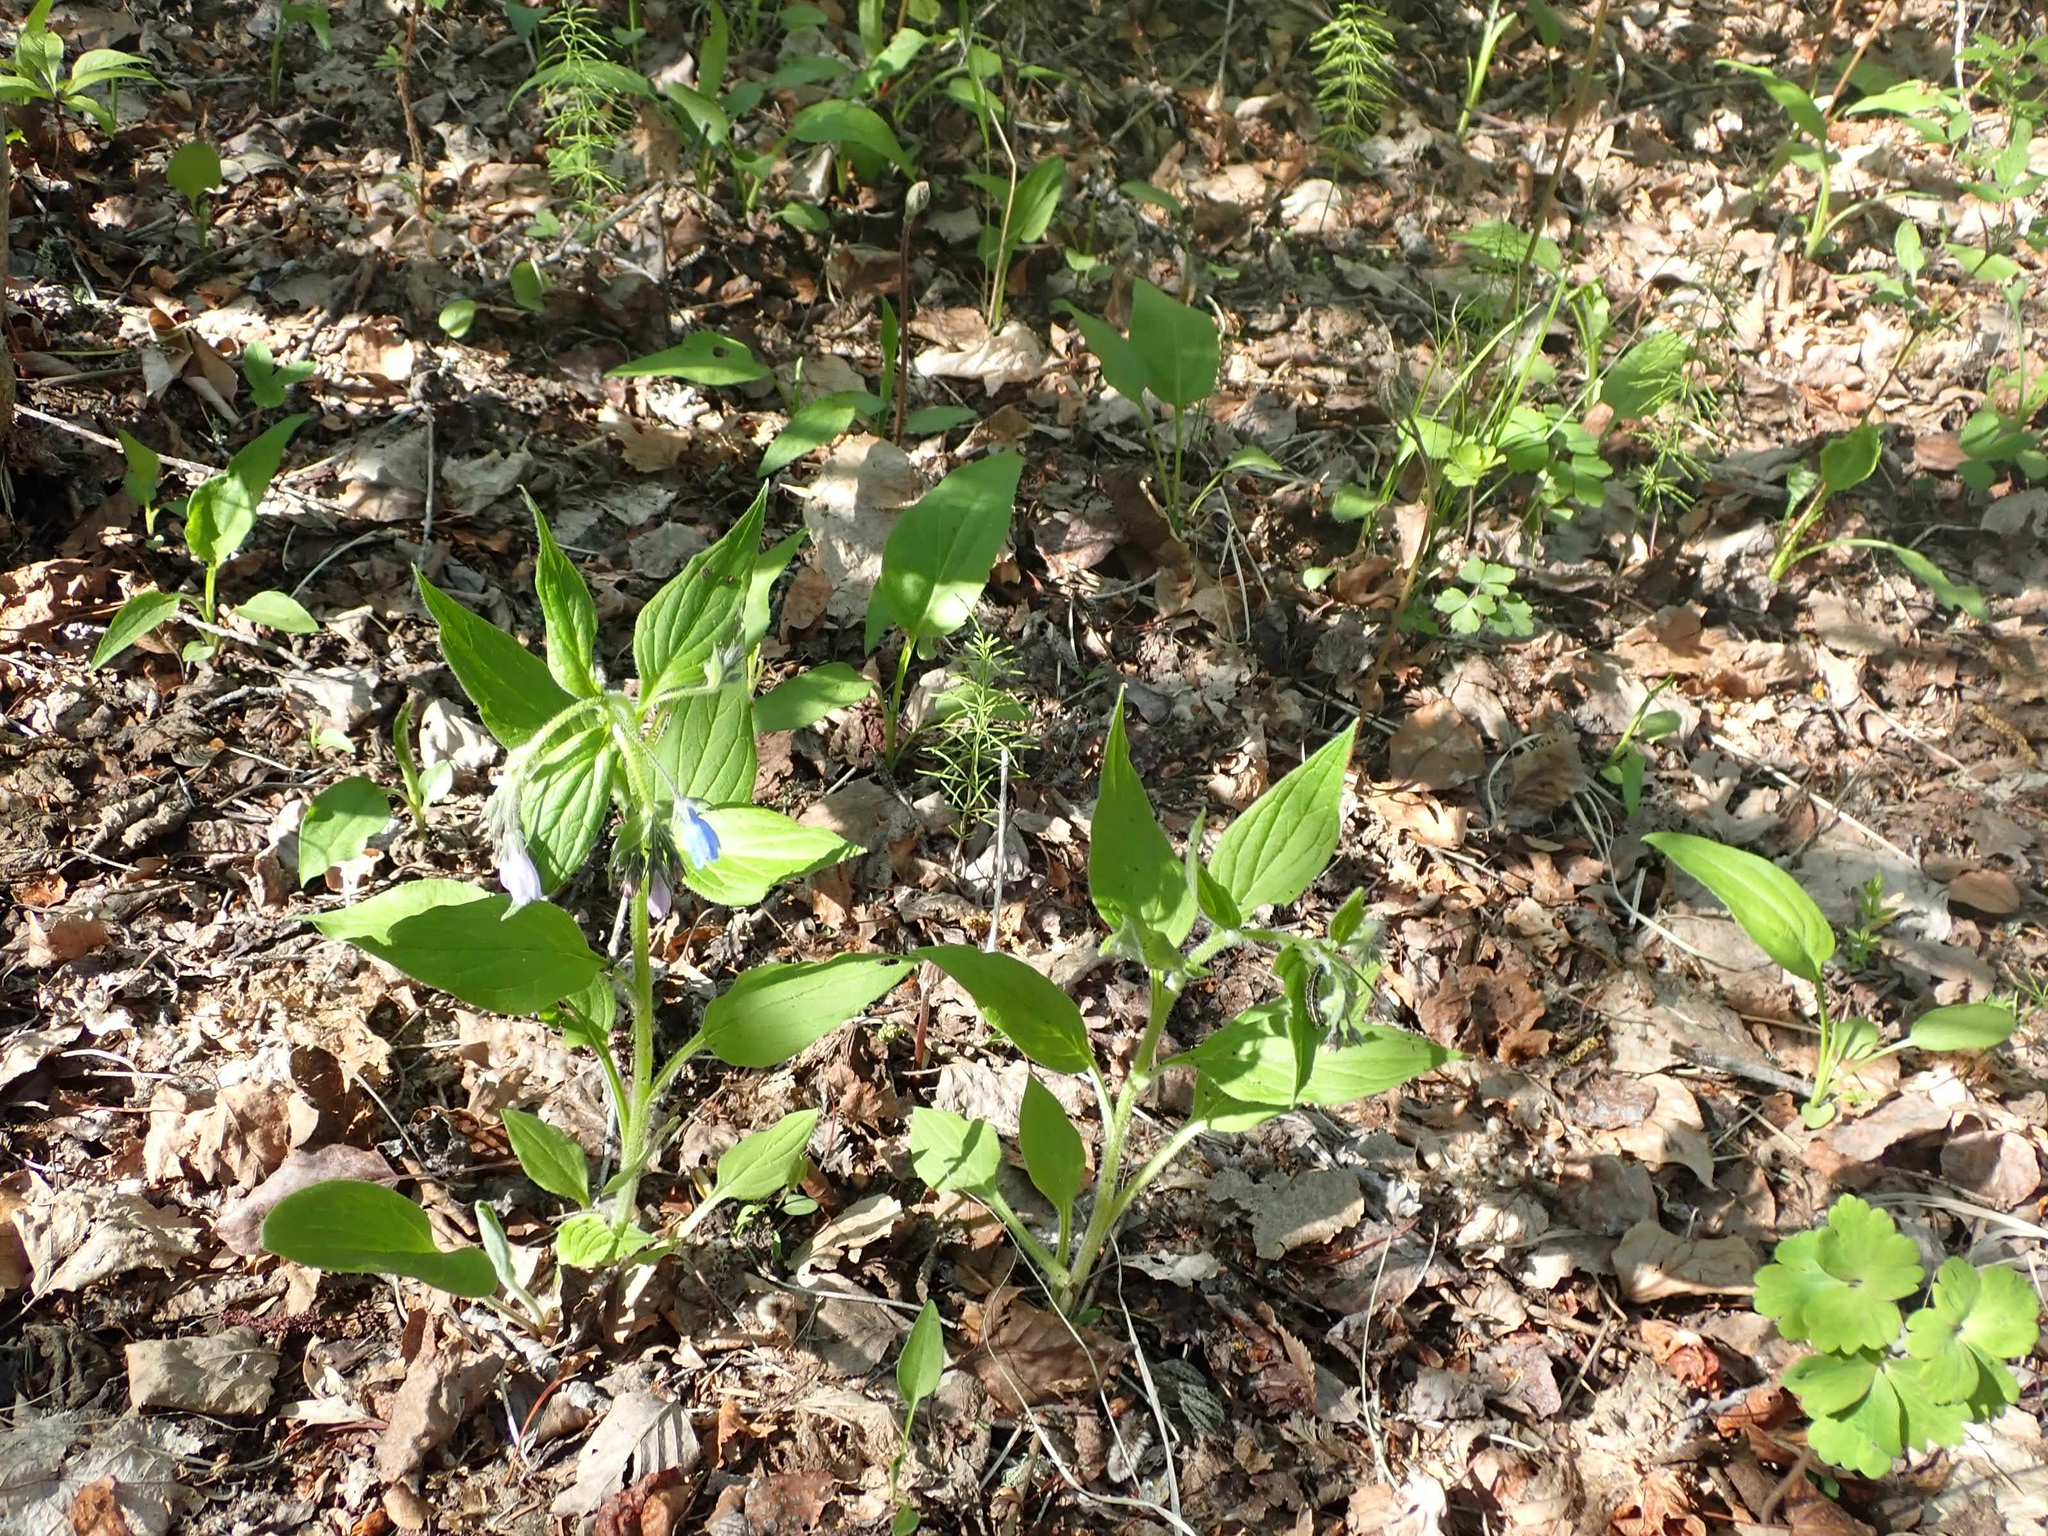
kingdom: Plantae
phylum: Tracheophyta
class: Magnoliopsida
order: Boraginales
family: Boraginaceae
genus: Mertensia
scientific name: Mertensia paniculata
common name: Panicled bluebells
